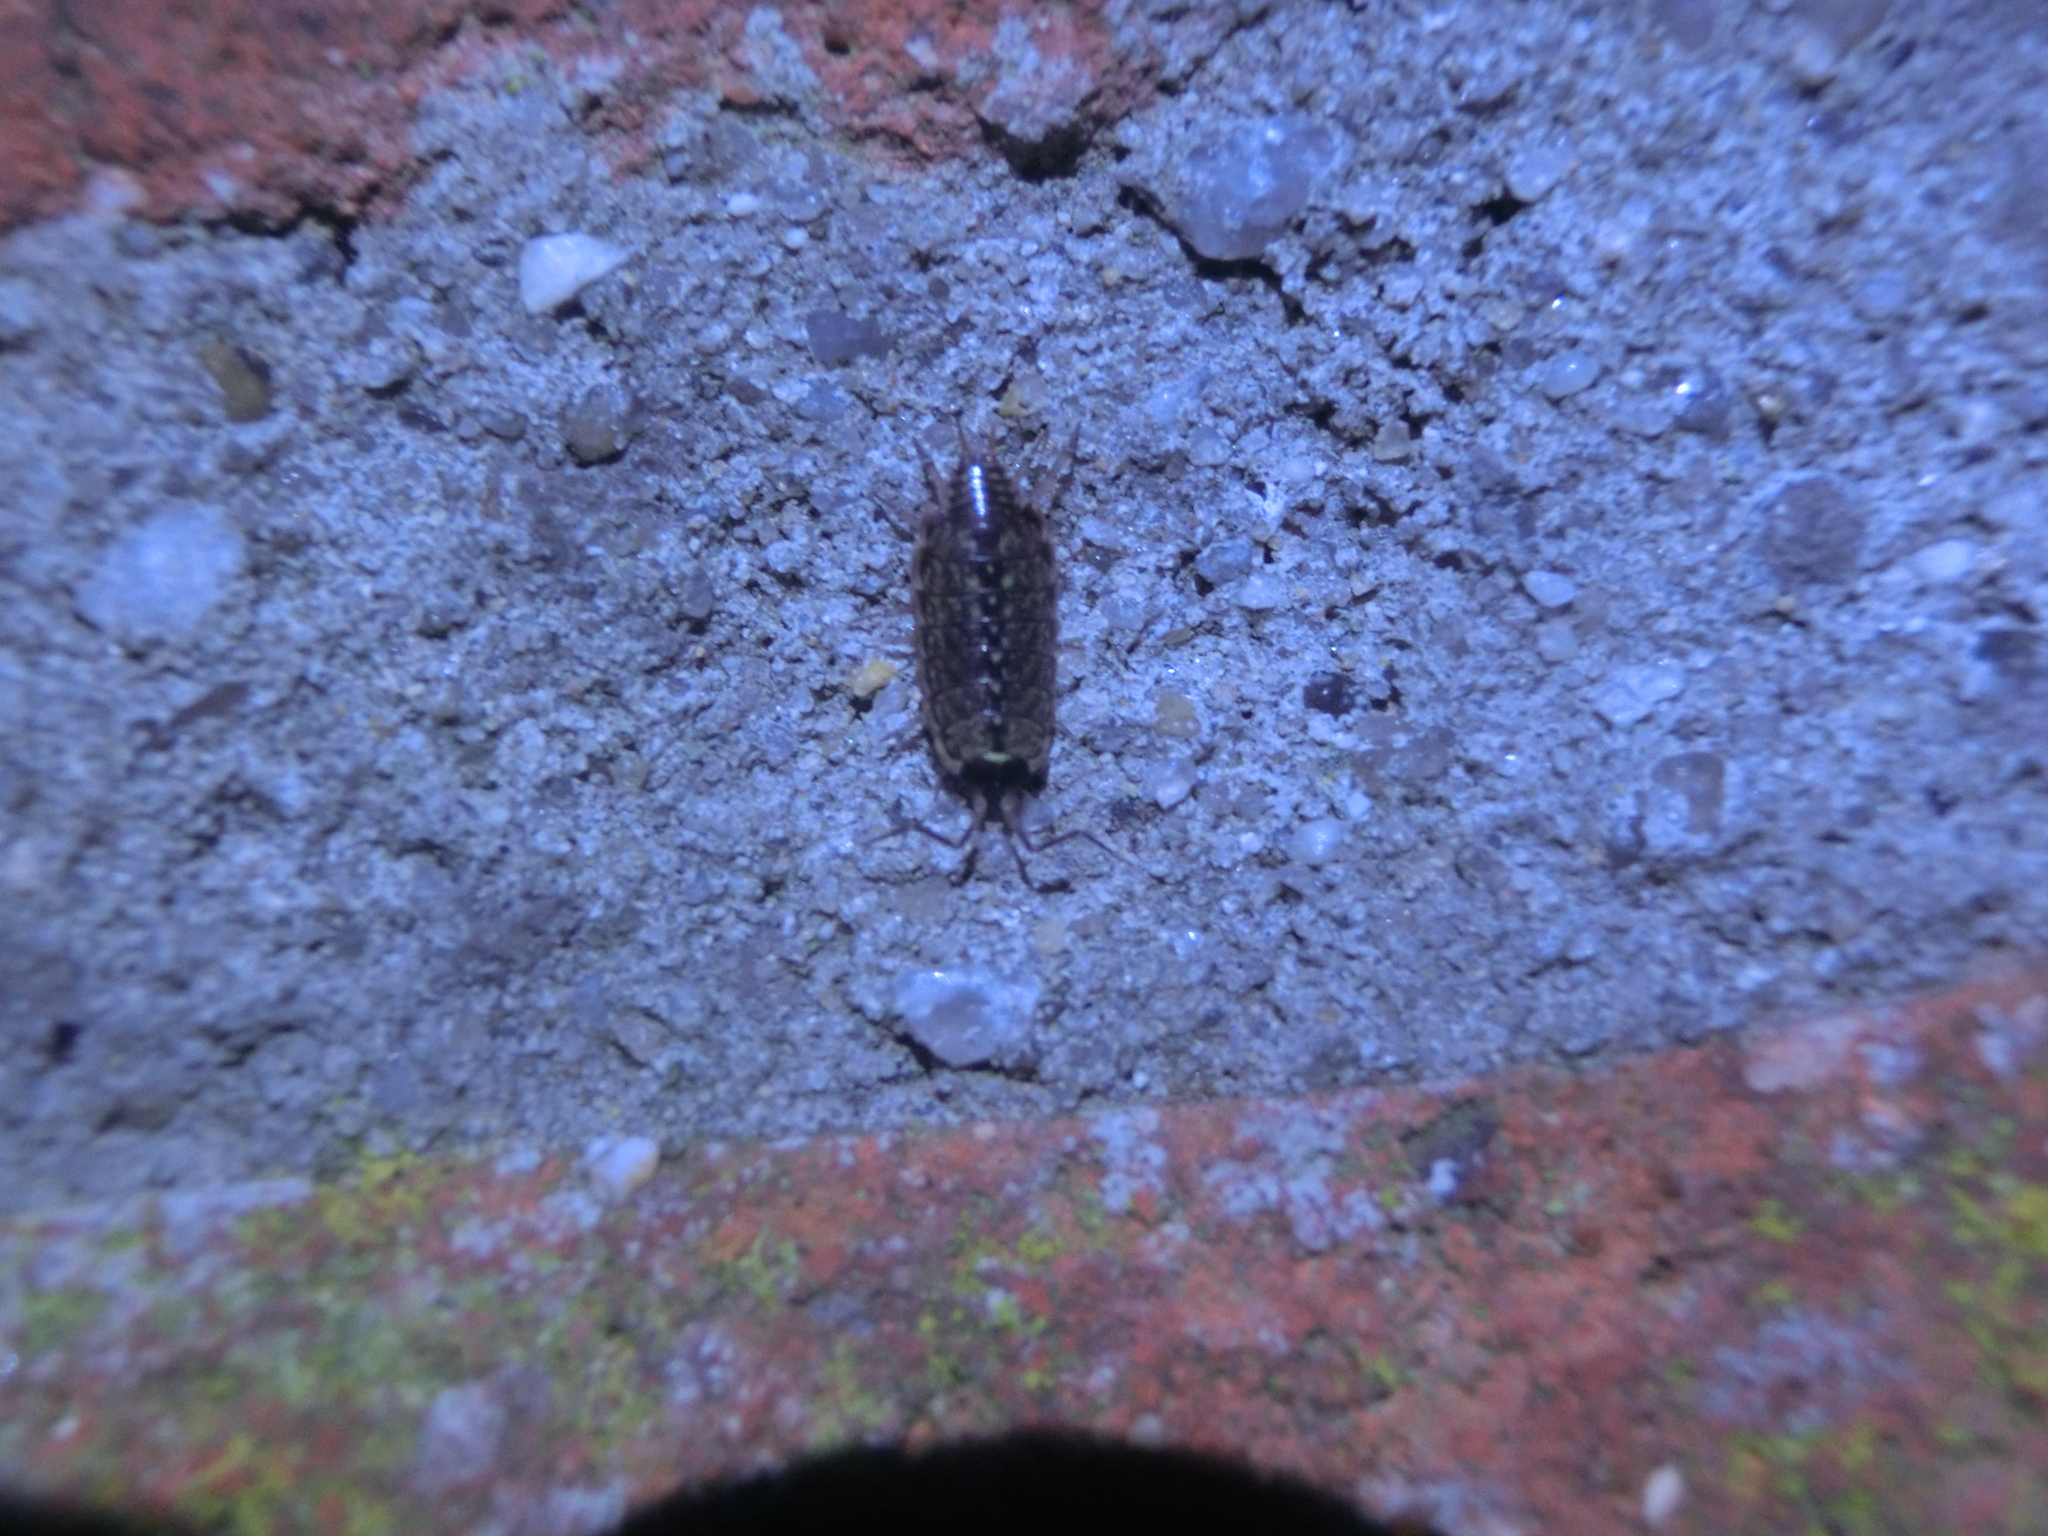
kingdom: Animalia
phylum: Arthropoda
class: Malacostraca
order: Isopoda
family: Philosciidae
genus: Philoscia
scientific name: Philoscia muscorum
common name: Common striped woodlouse
